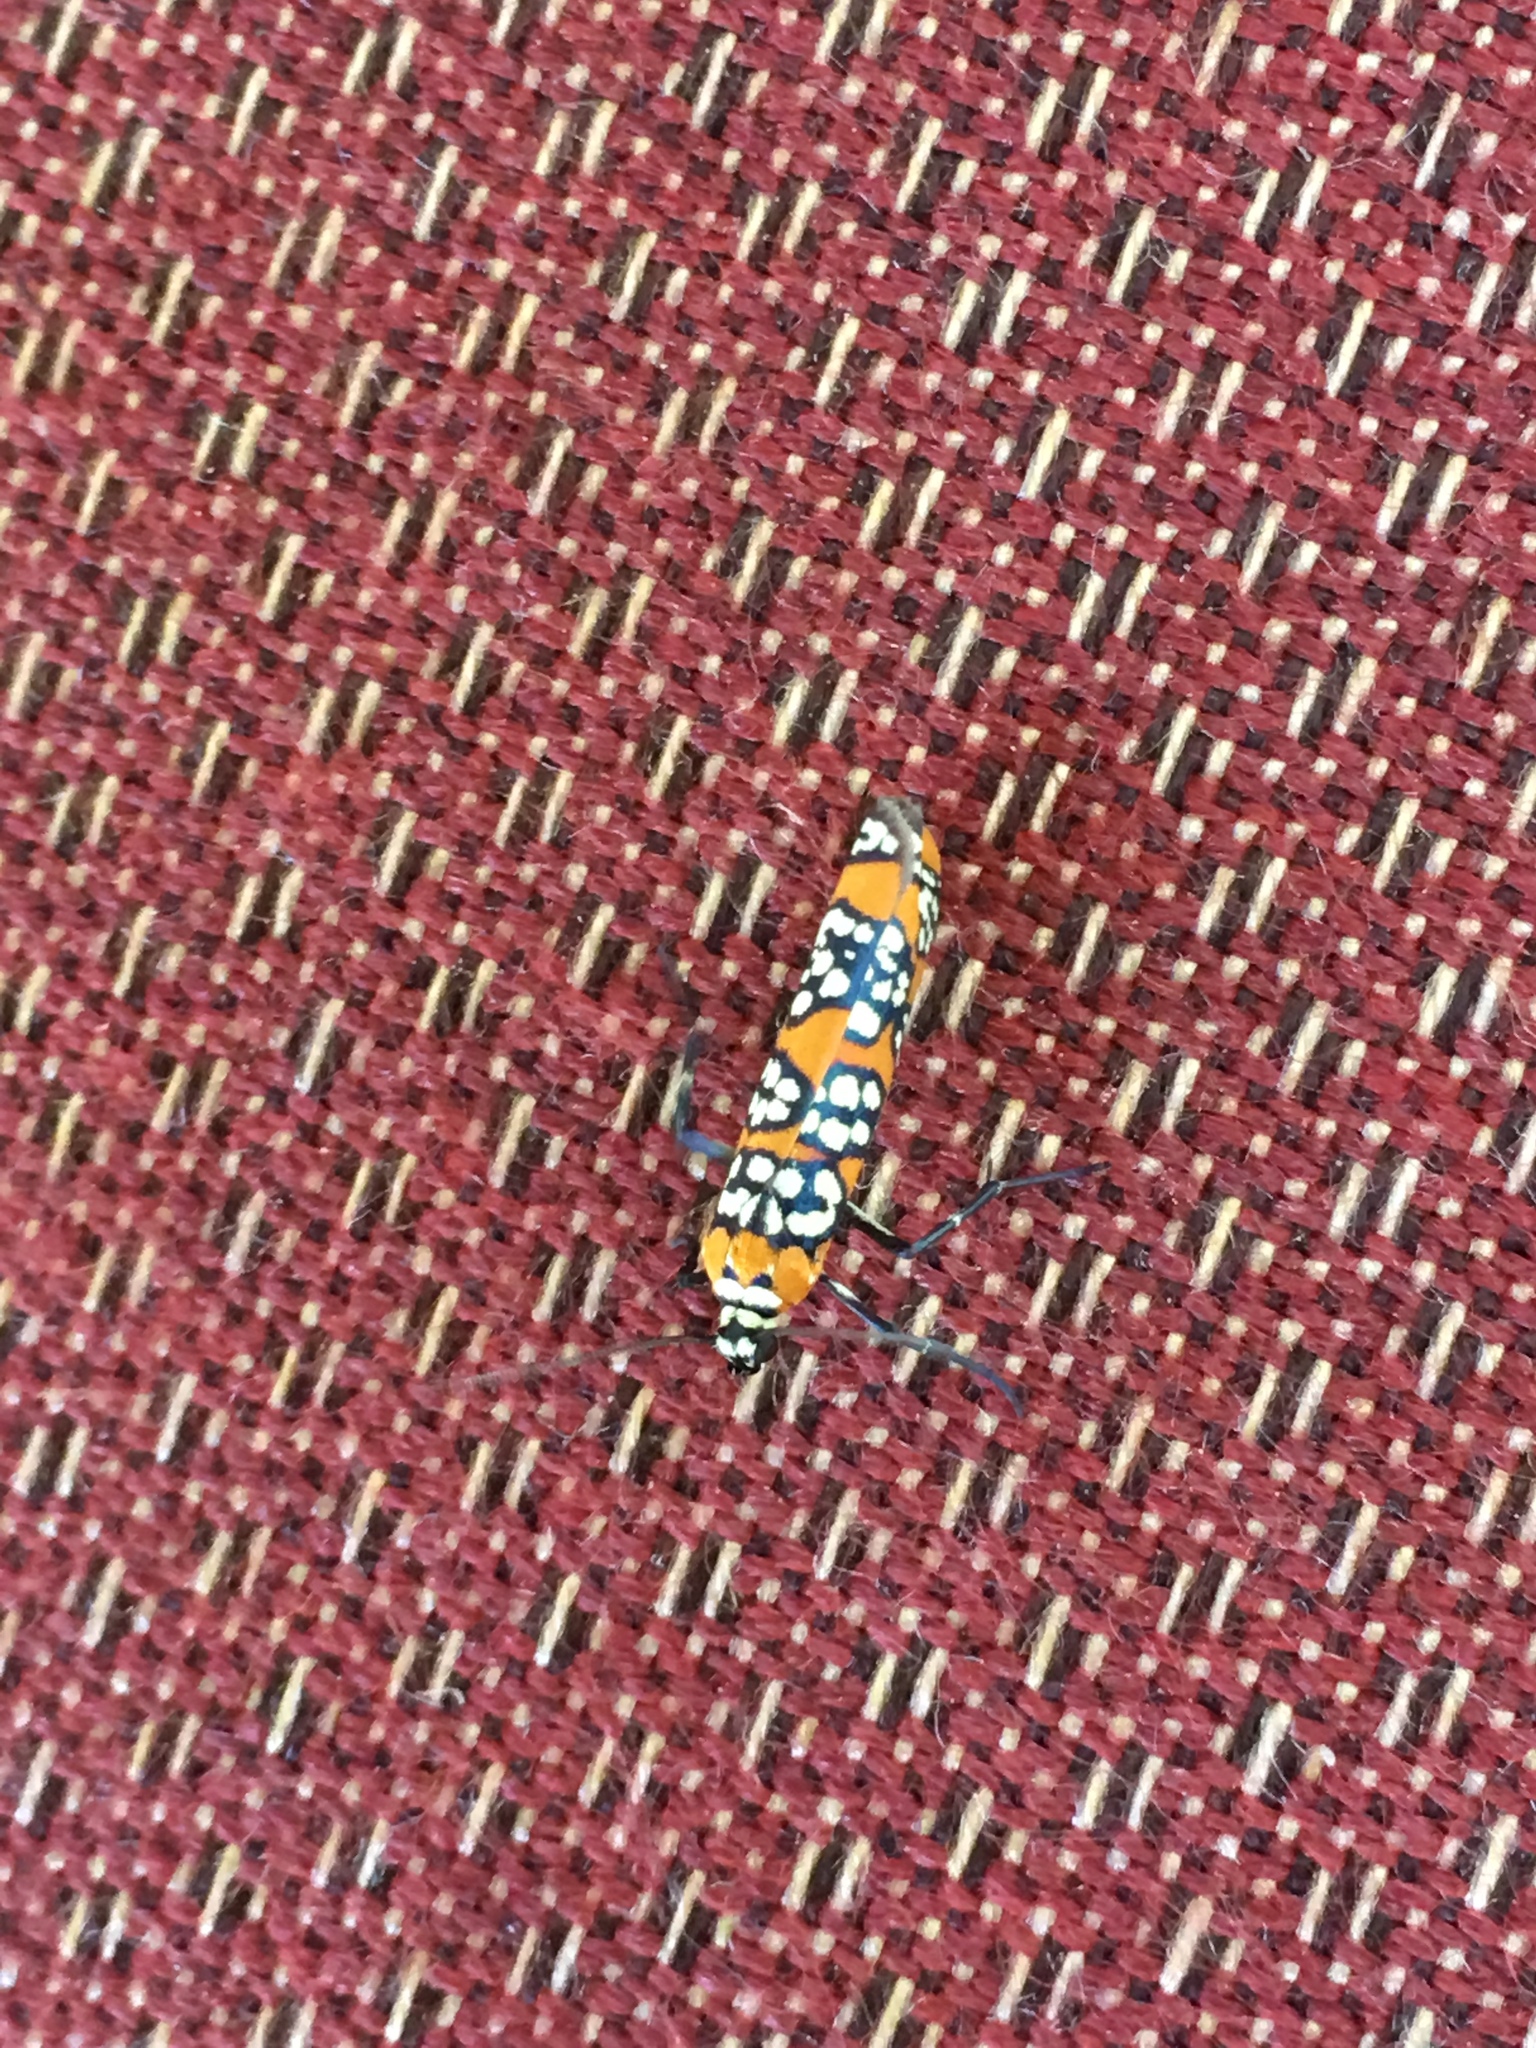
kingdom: Animalia
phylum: Arthropoda
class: Insecta
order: Lepidoptera
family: Attevidae
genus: Atteva
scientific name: Atteva punctella
